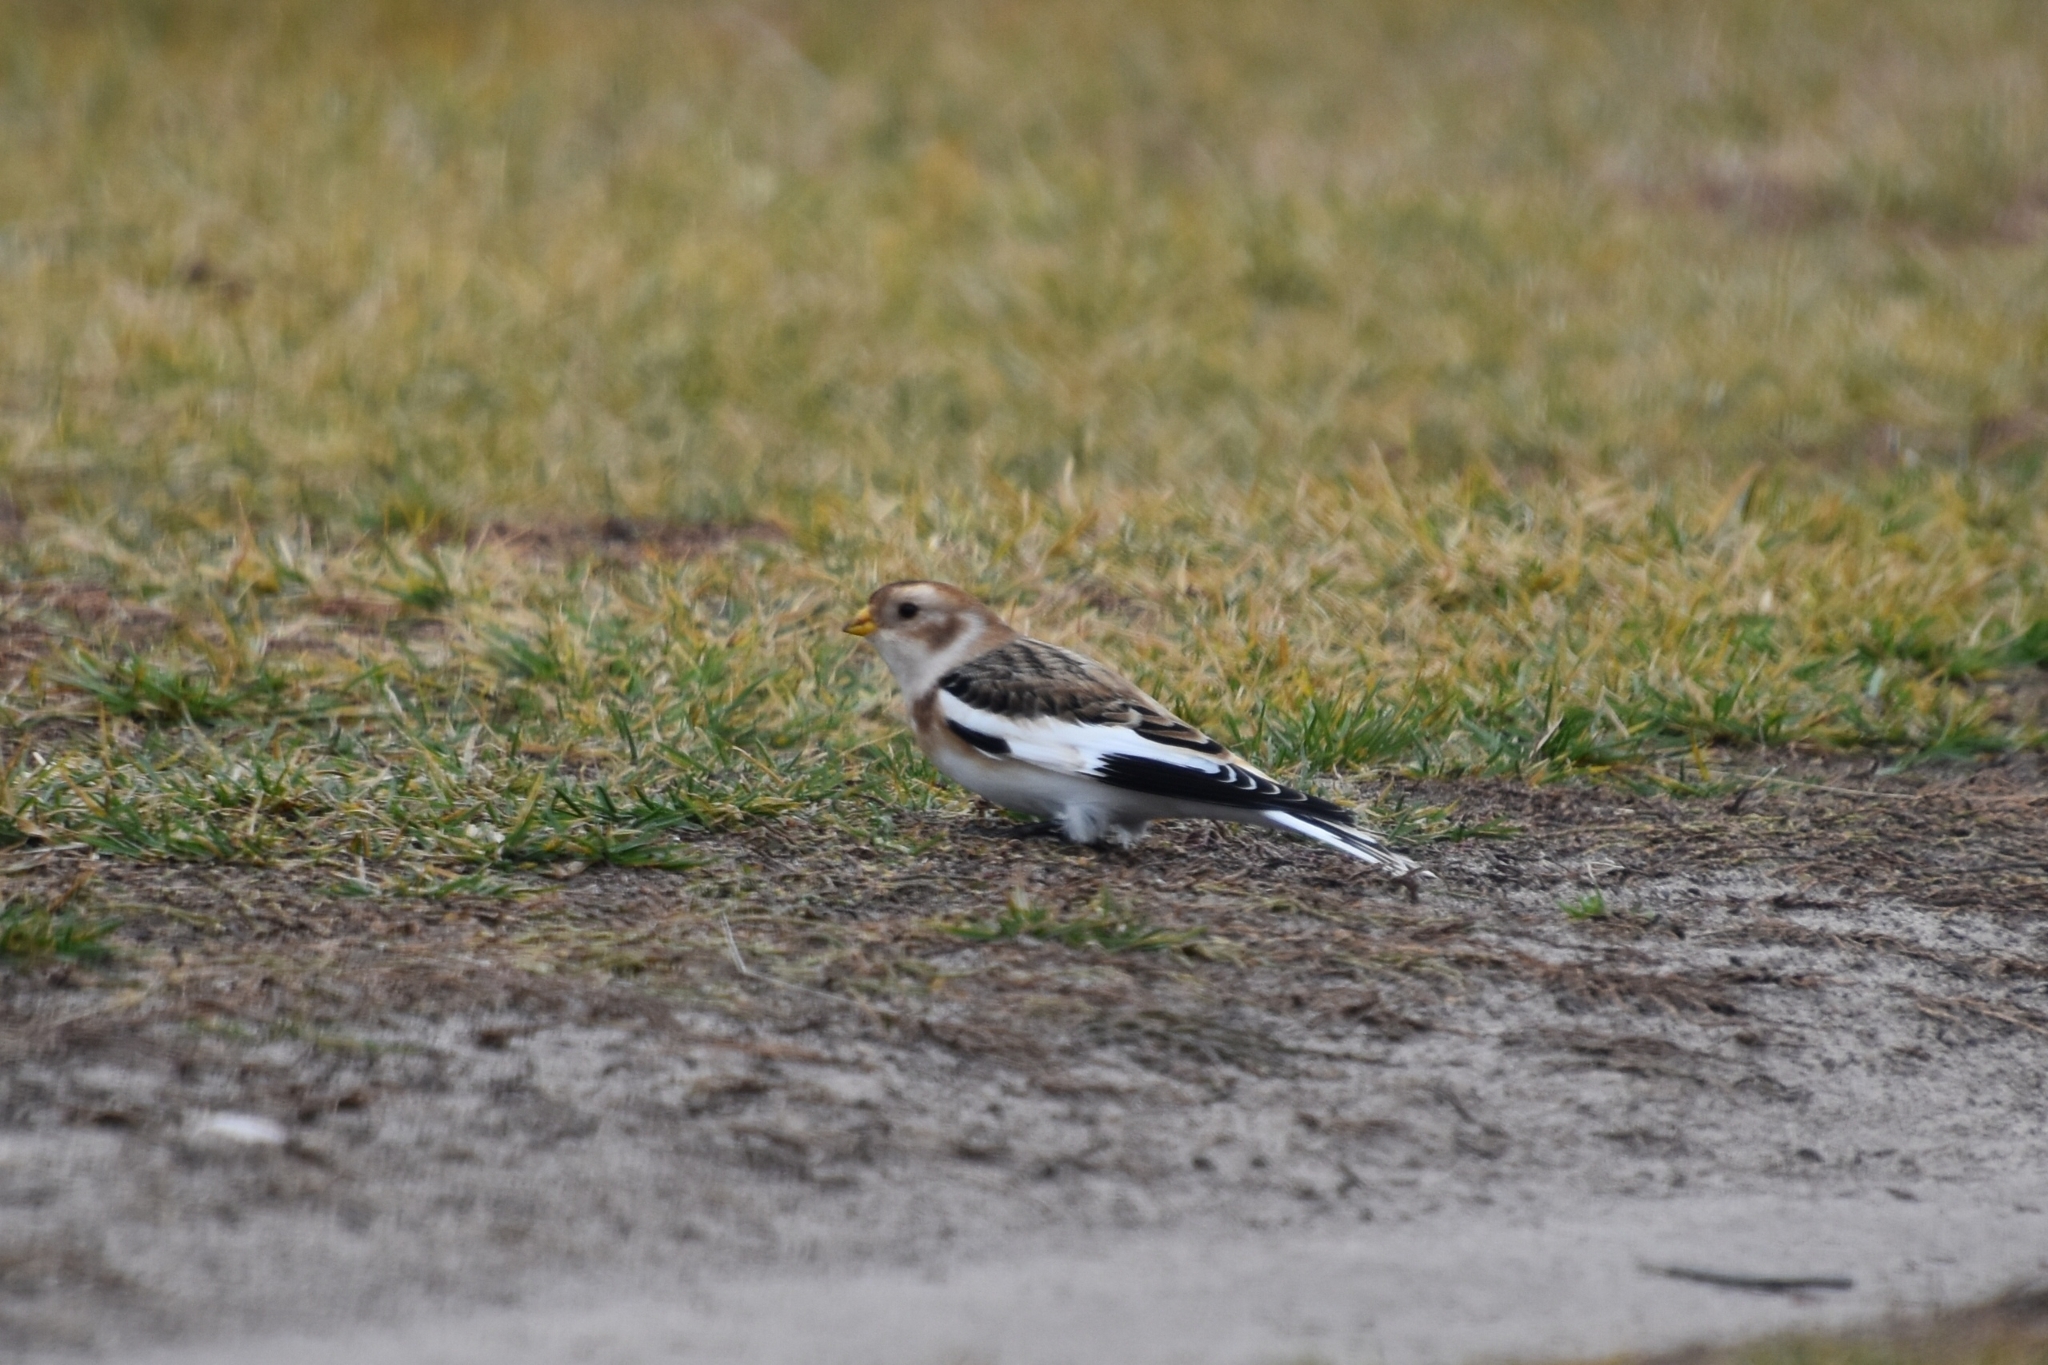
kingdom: Animalia
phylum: Chordata
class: Aves
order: Passeriformes
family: Calcariidae
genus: Plectrophenax
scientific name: Plectrophenax nivalis
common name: Snow bunting
